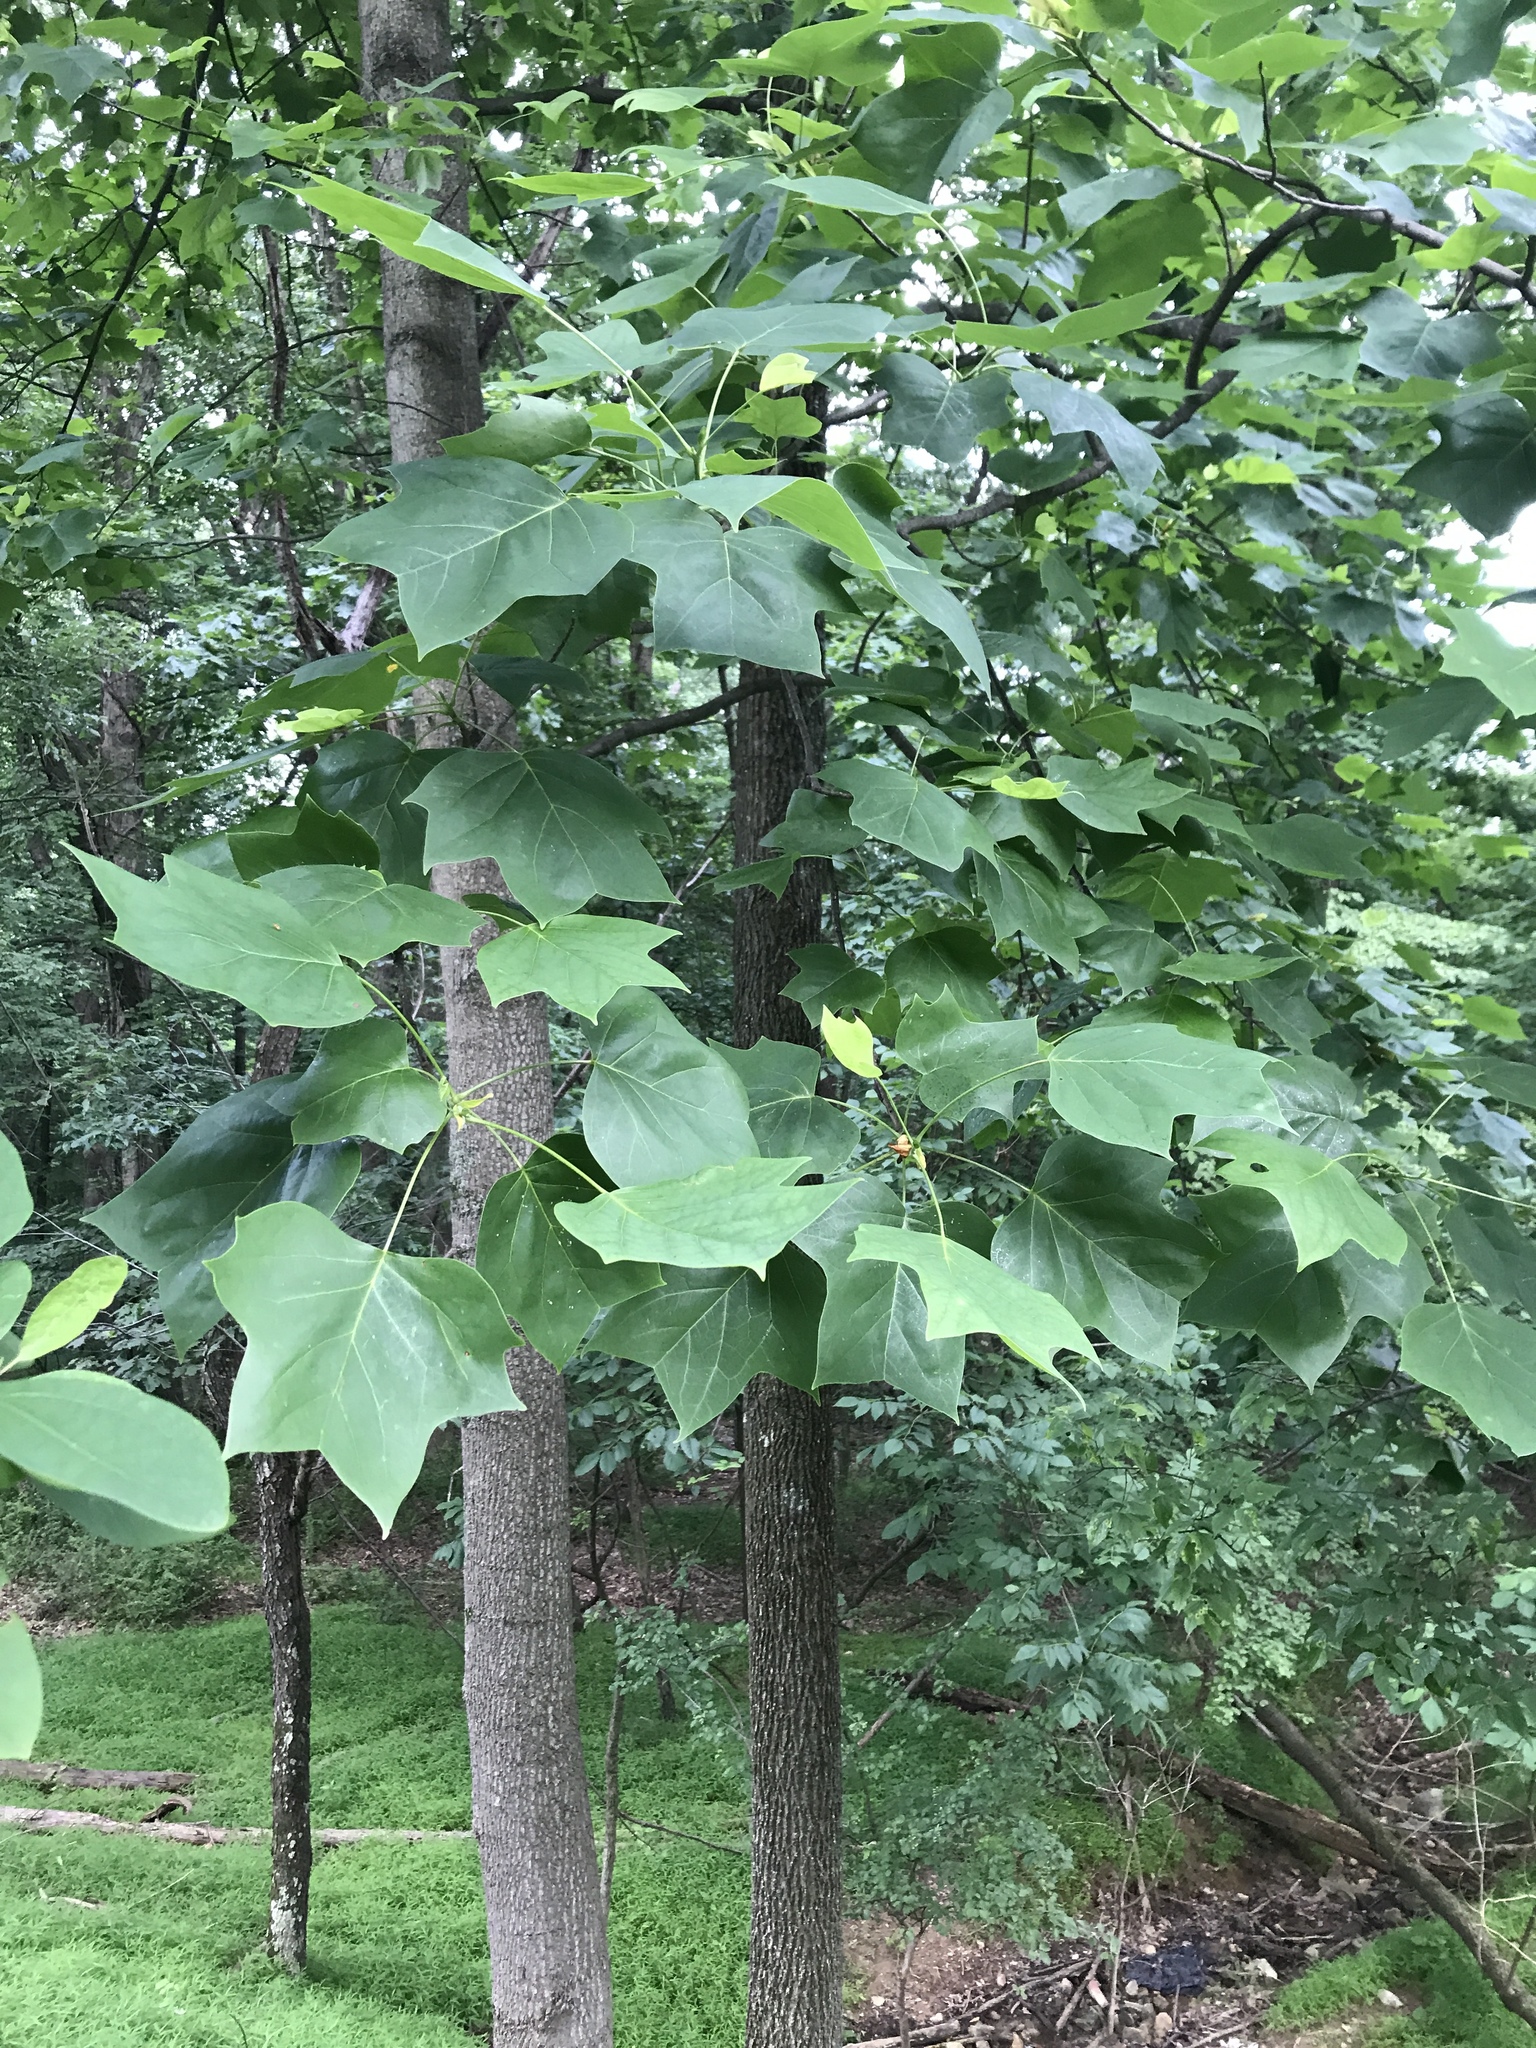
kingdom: Plantae
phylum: Tracheophyta
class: Magnoliopsida
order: Magnoliales
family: Magnoliaceae
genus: Liriodendron
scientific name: Liriodendron tulipifera
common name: Tulip tree
